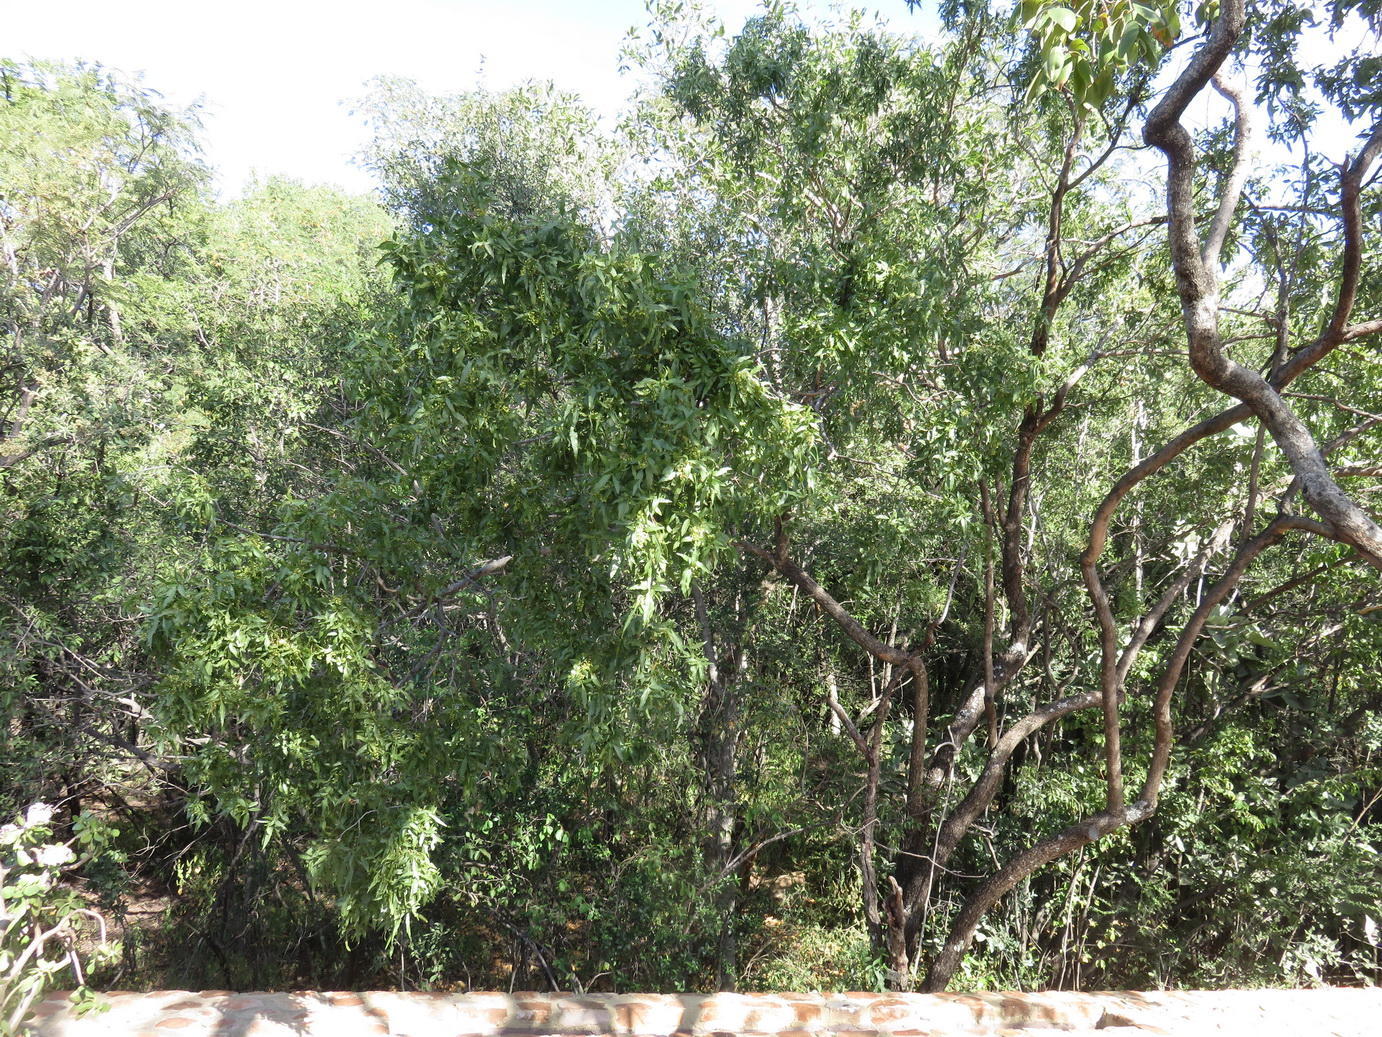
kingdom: Plantae
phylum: Tracheophyta
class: Magnoliopsida
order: Sapindales
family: Anacardiaceae
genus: Searsia
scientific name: Searsia leptodictya
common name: Mountain karee
